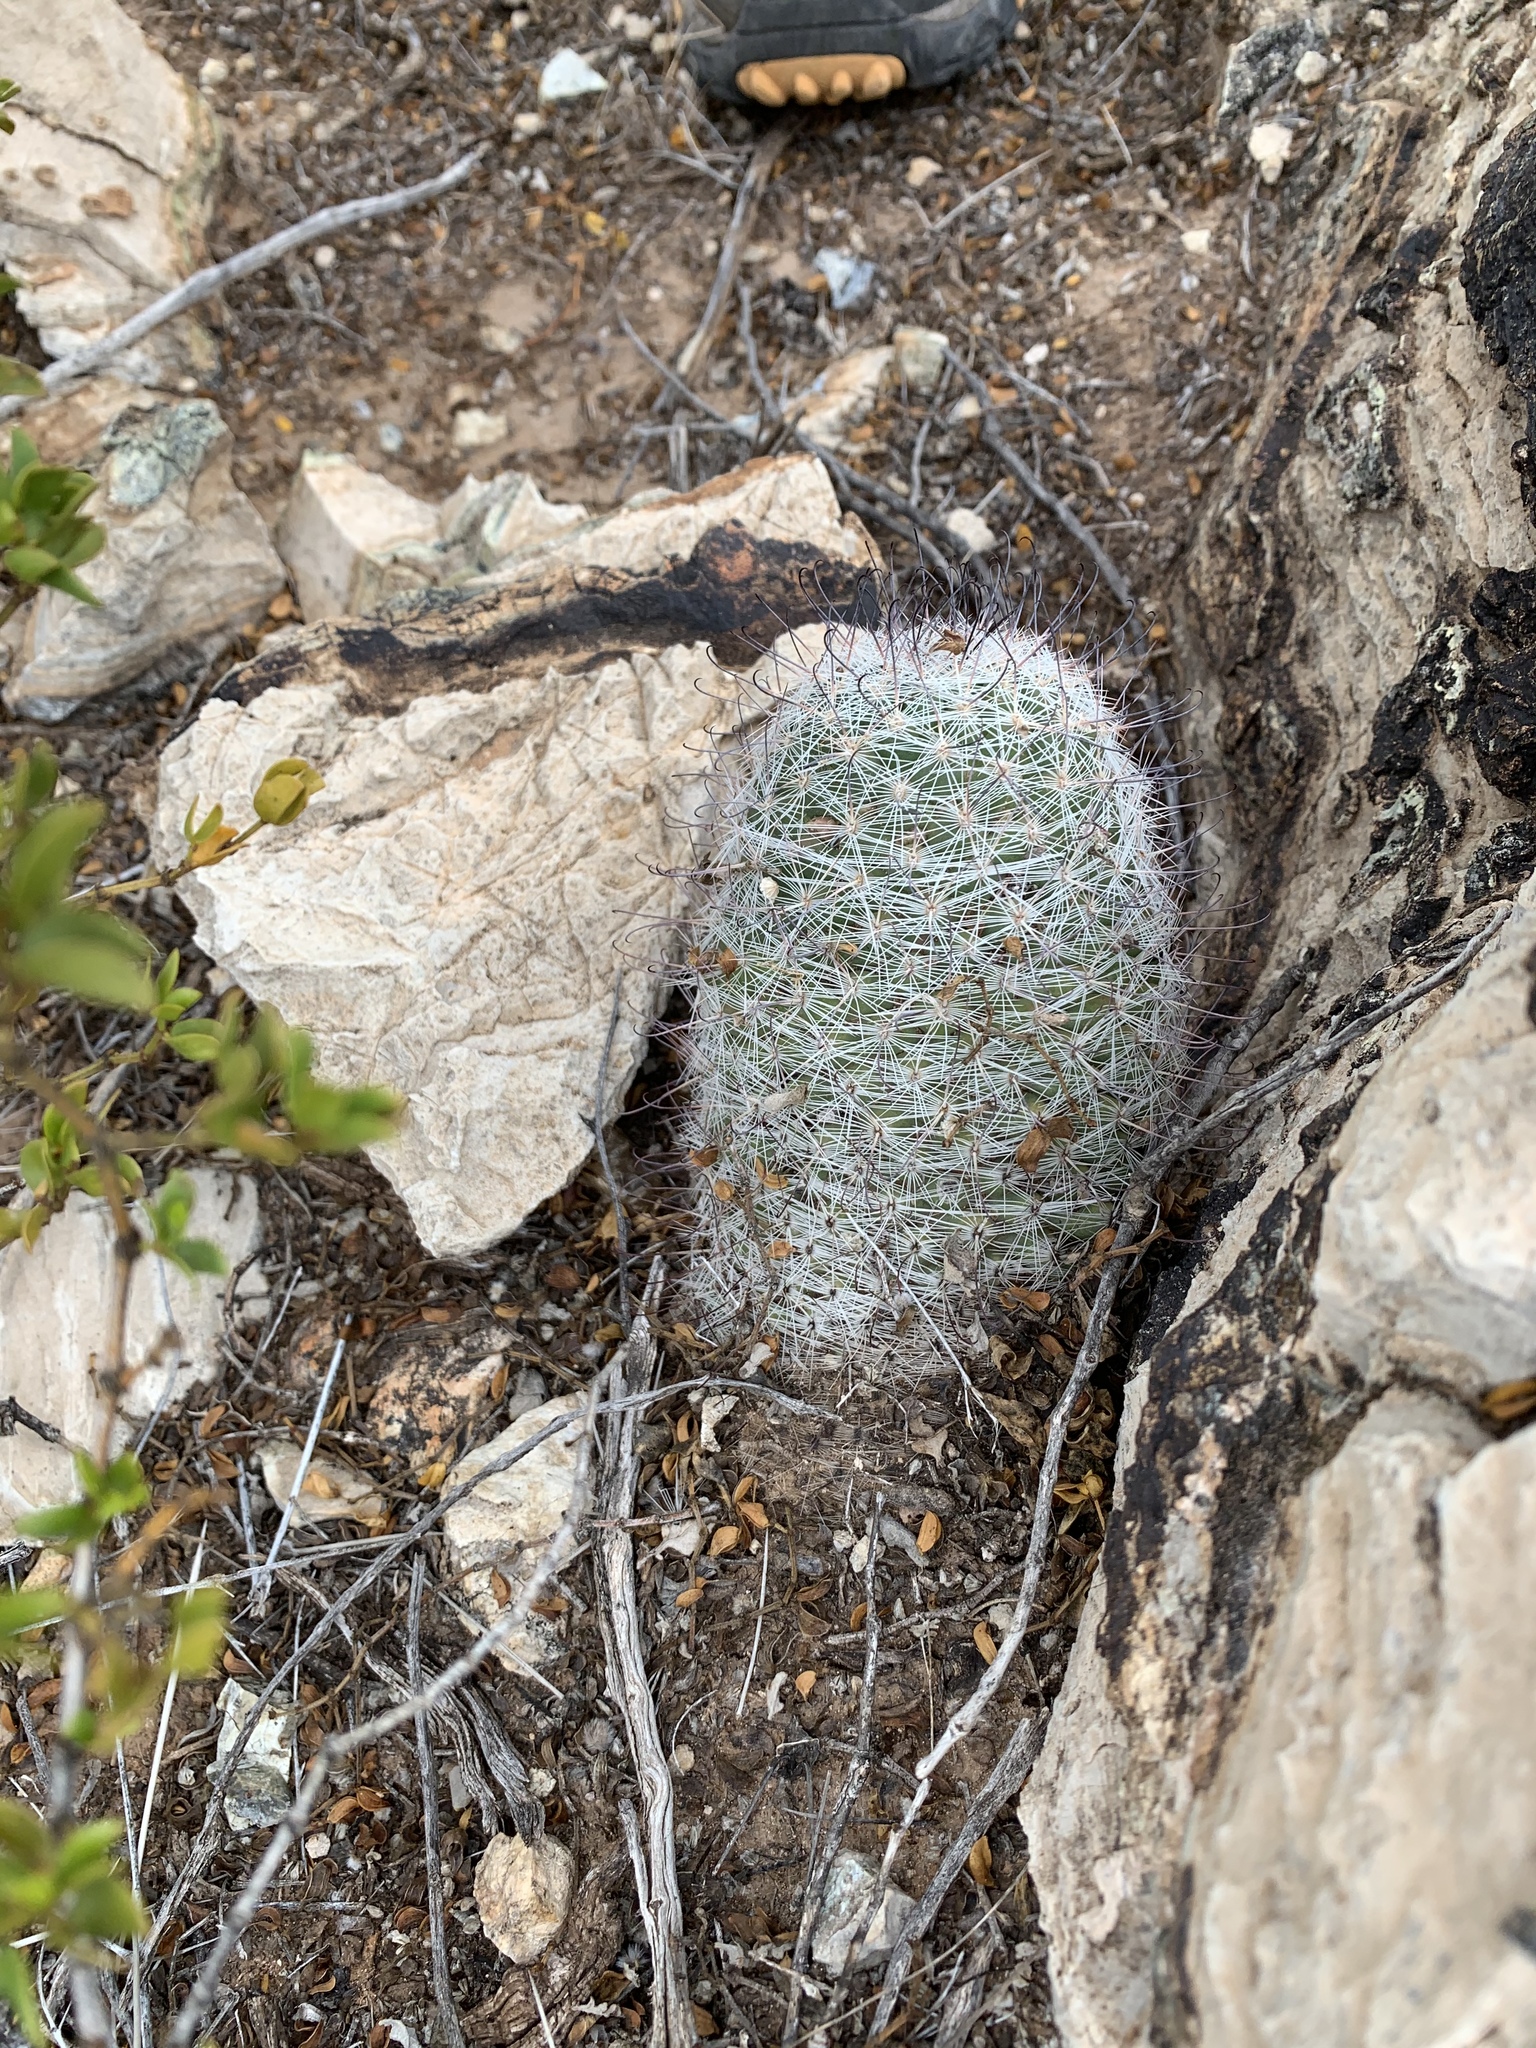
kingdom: Plantae
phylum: Tracheophyta
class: Magnoliopsida
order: Caryophyllales
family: Cactaceae
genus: Cochemiea
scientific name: Cochemiea grahamii
